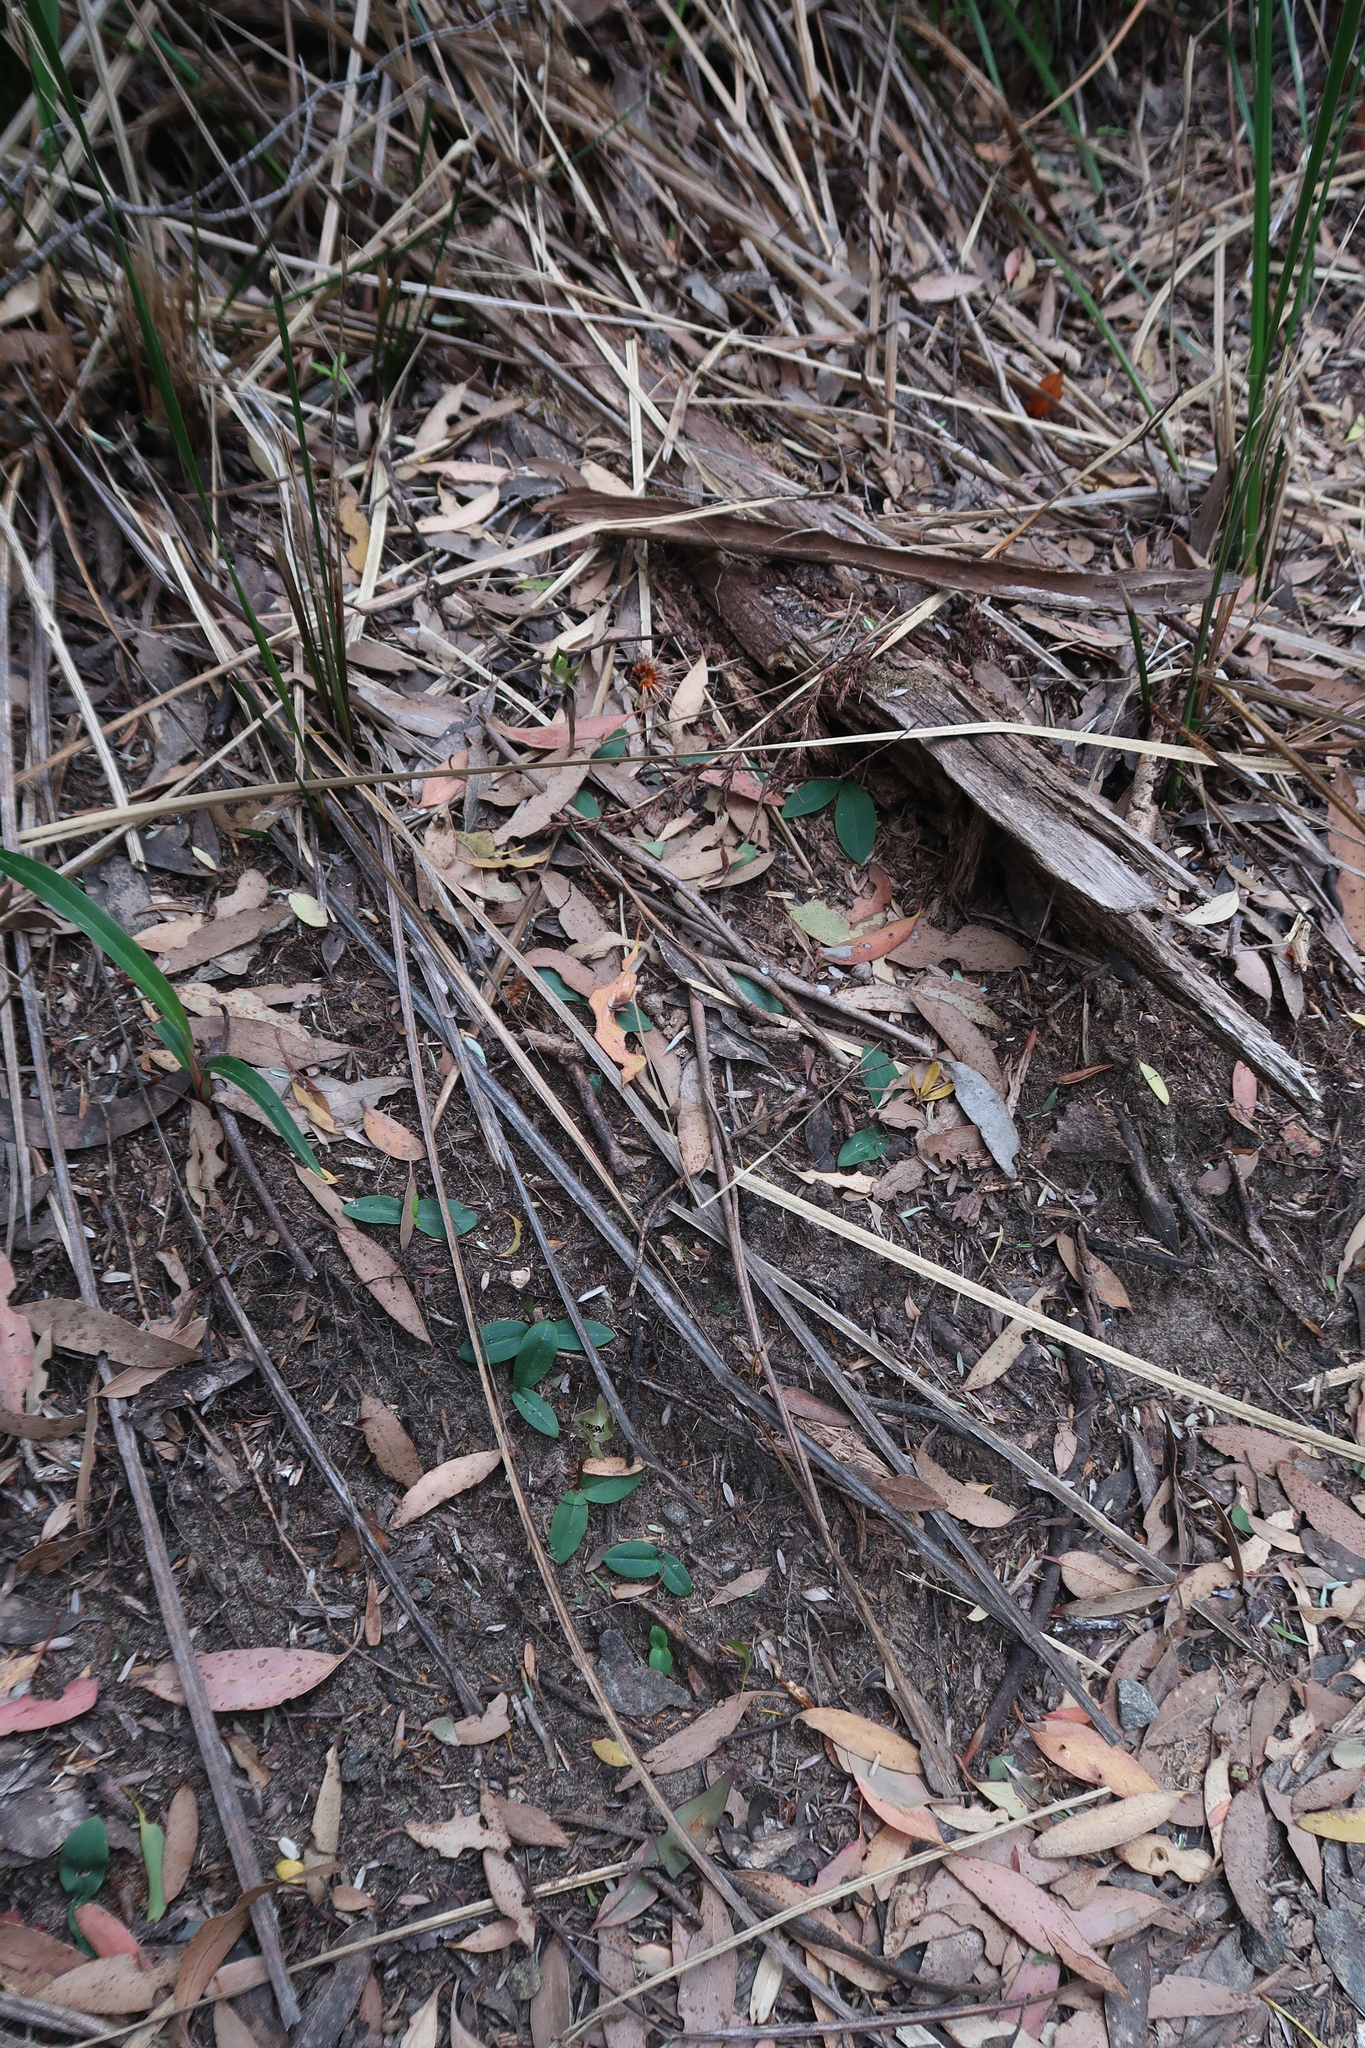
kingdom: Plantae
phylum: Tracheophyta
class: Liliopsida
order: Asparagales
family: Orchidaceae
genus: Chiloglottis
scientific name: Chiloglottis gunnii
